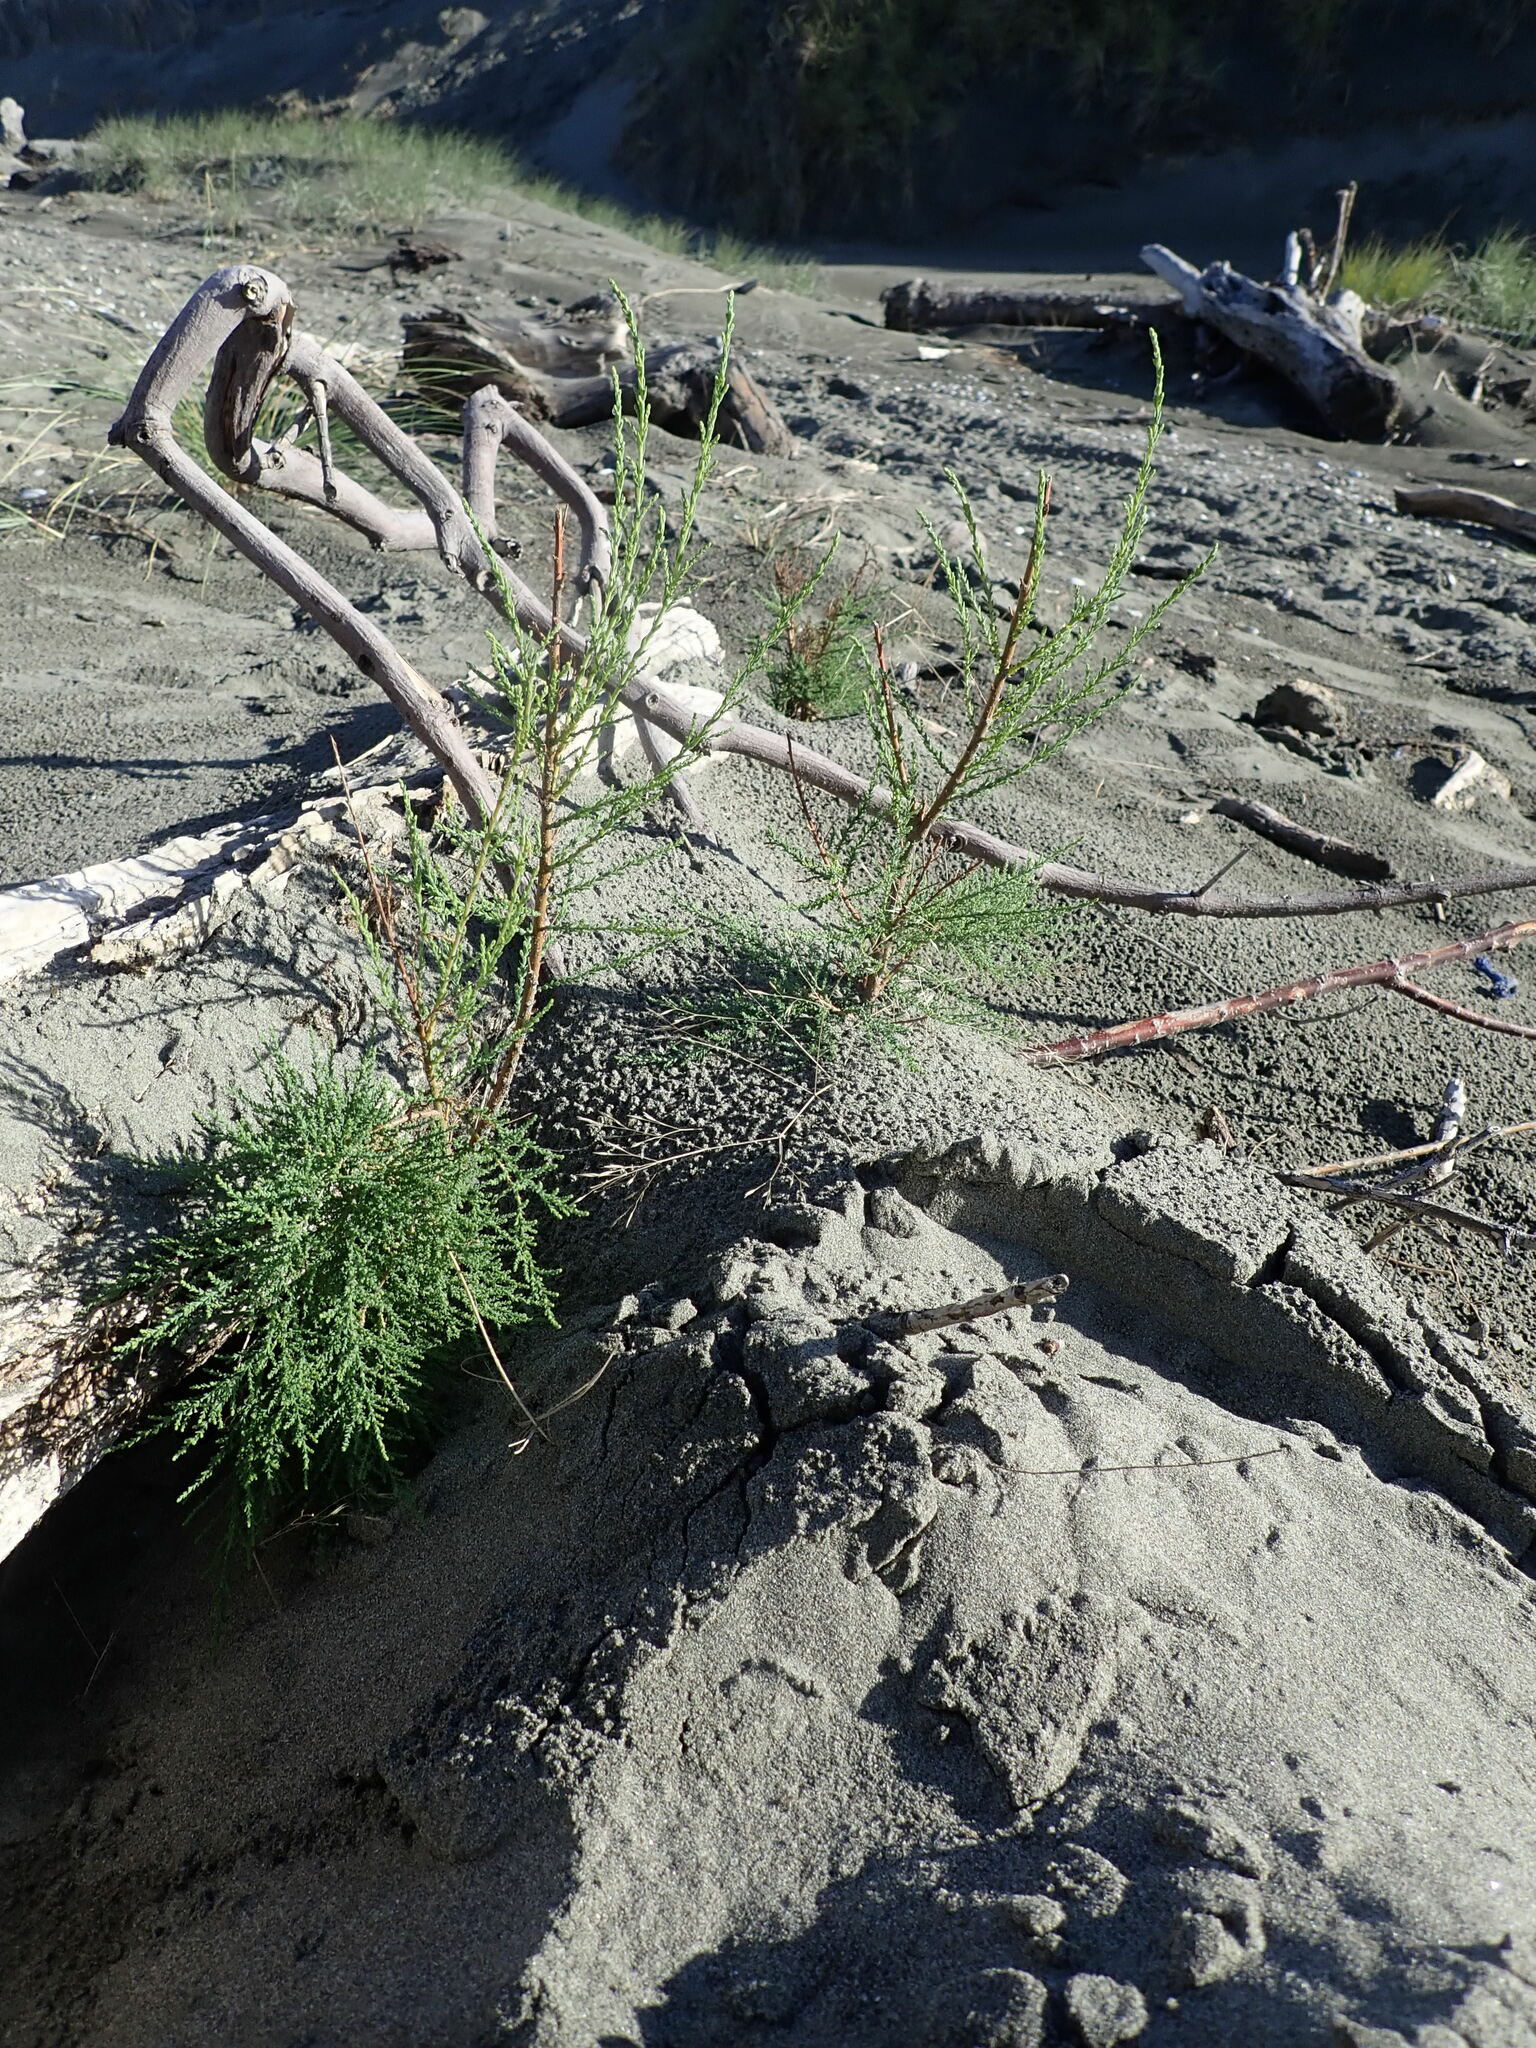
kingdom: Plantae
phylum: Tracheophyta
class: Pinopsida
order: Pinales
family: Cupressaceae
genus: Cupressus
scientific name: Cupressus macrocarpa
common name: Monterey cypress
